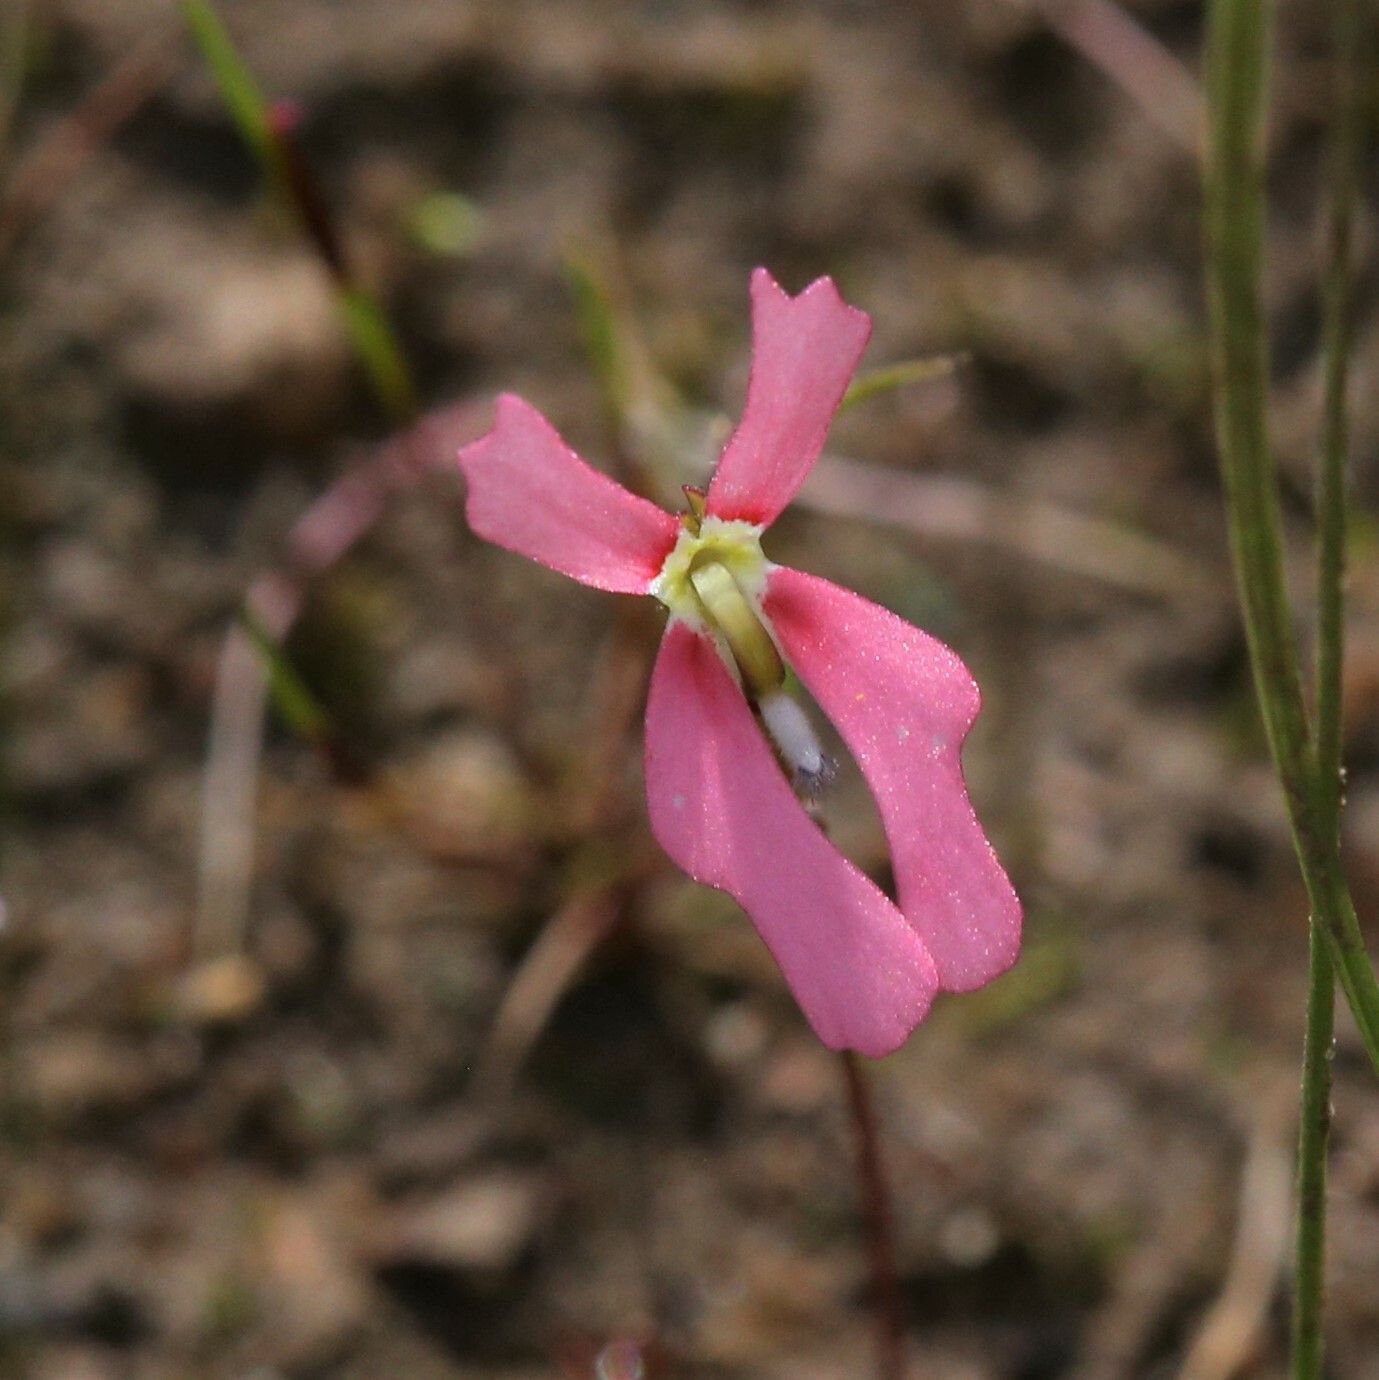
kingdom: Plantae
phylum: Tracheophyta
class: Magnoliopsida
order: Asterales
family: Stylidiaceae
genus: Stylidium
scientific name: Stylidium ecorne
